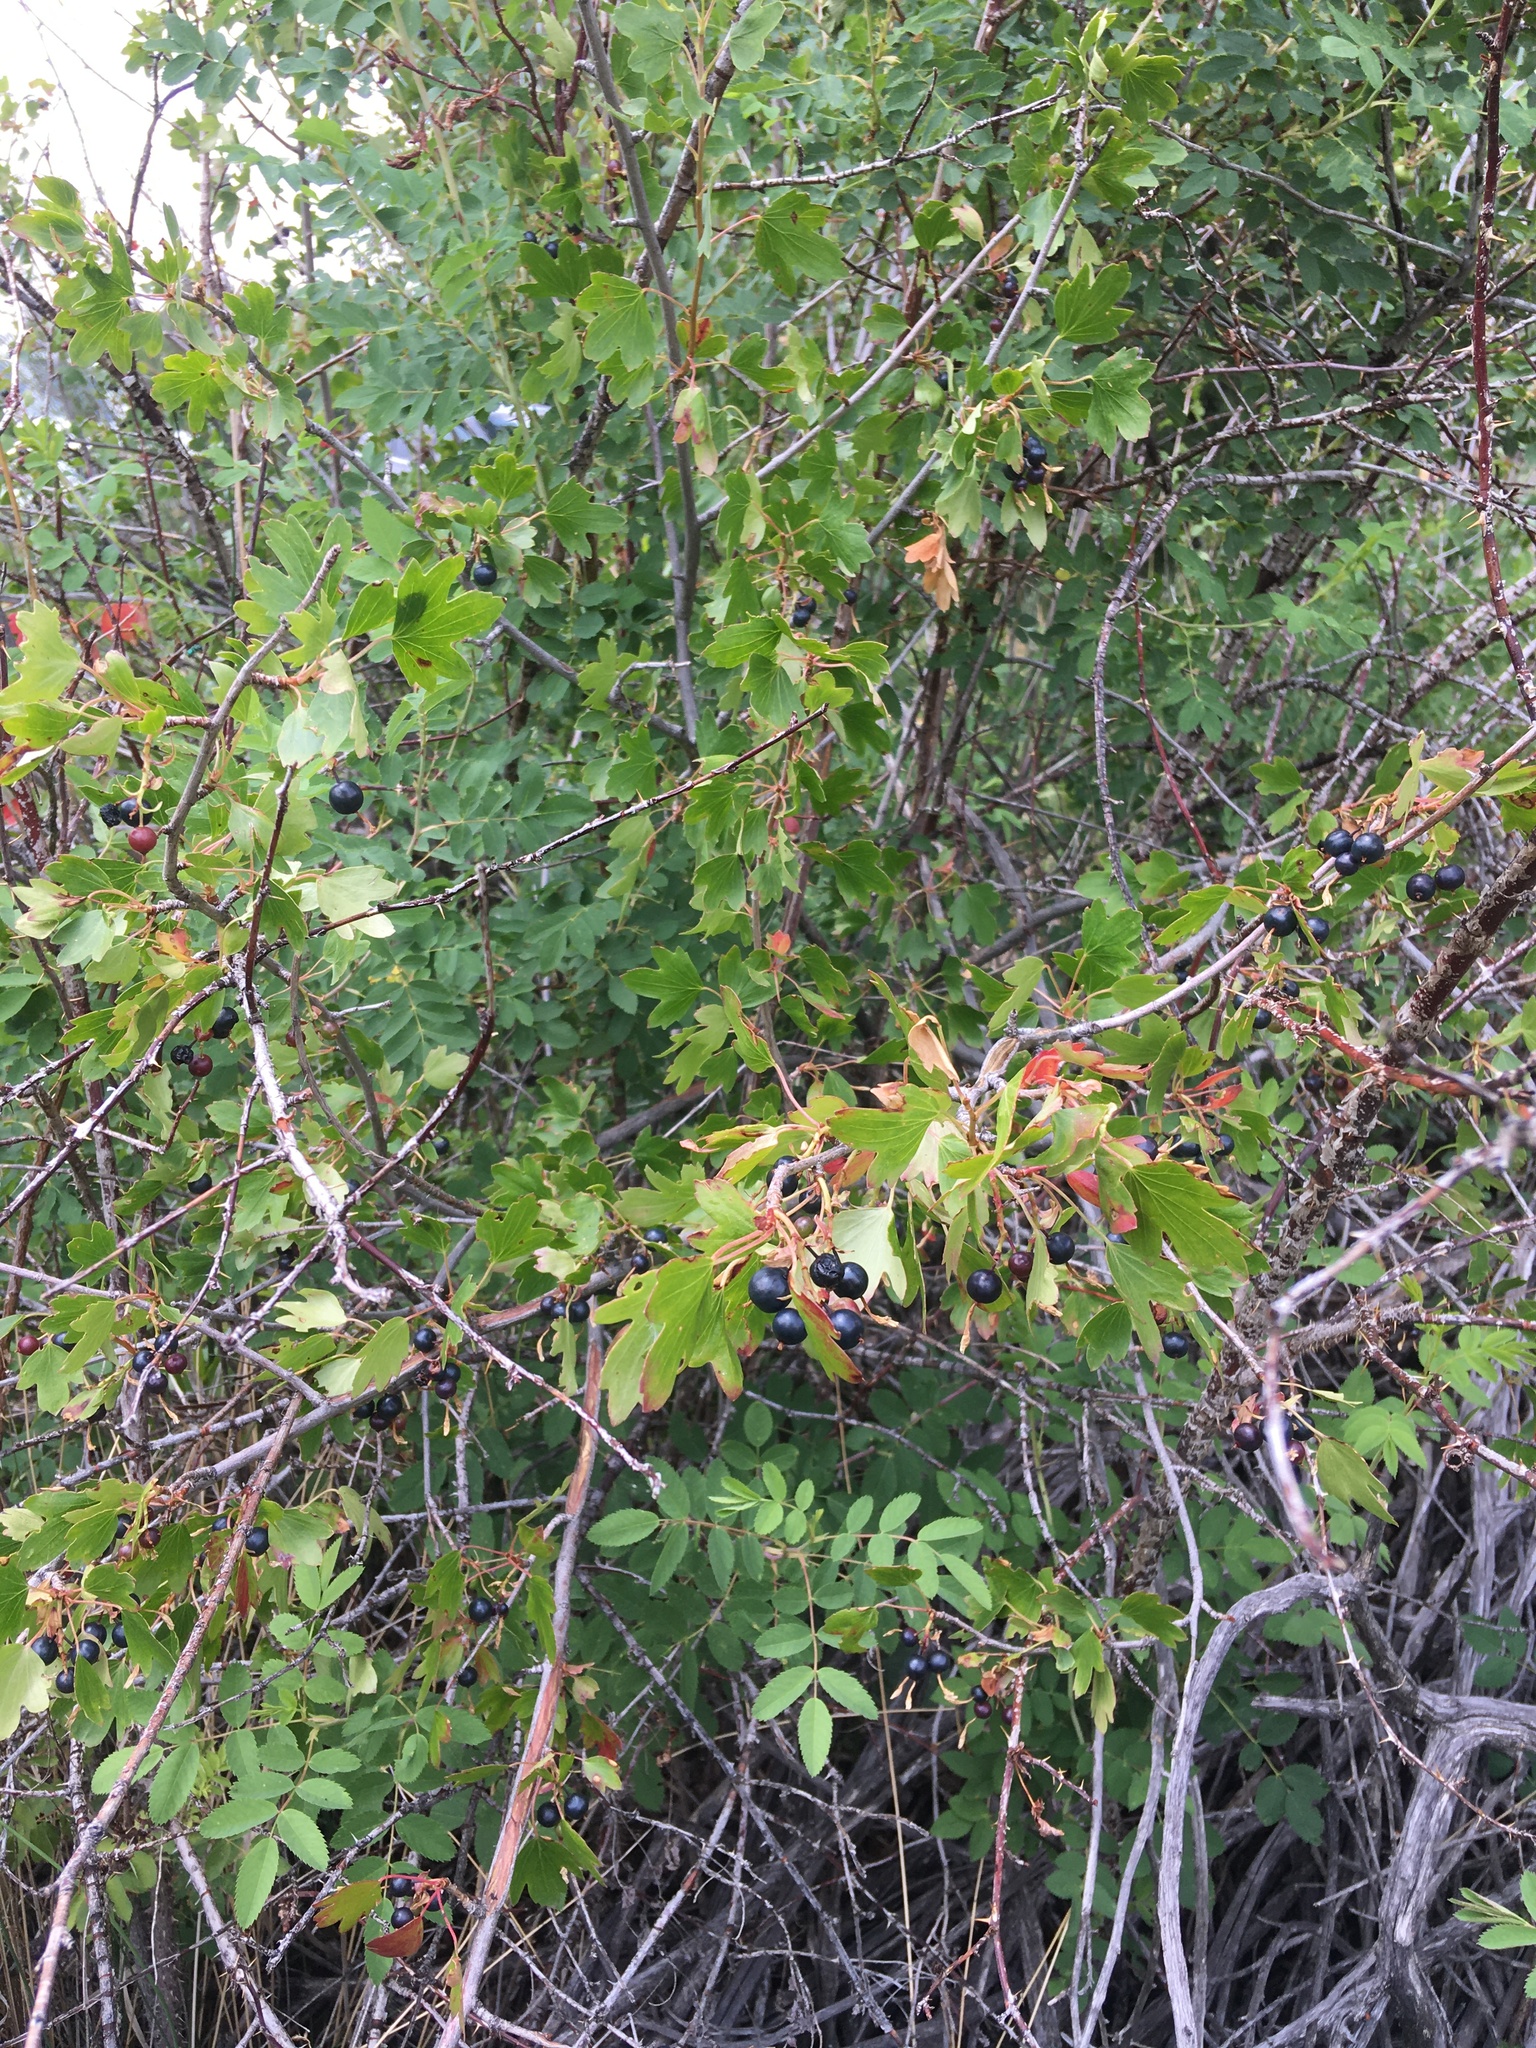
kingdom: Plantae
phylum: Tracheophyta
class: Magnoliopsida
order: Saxifragales
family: Grossulariaceae
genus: Ribes
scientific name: Ribes aureum
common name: Golden currant
